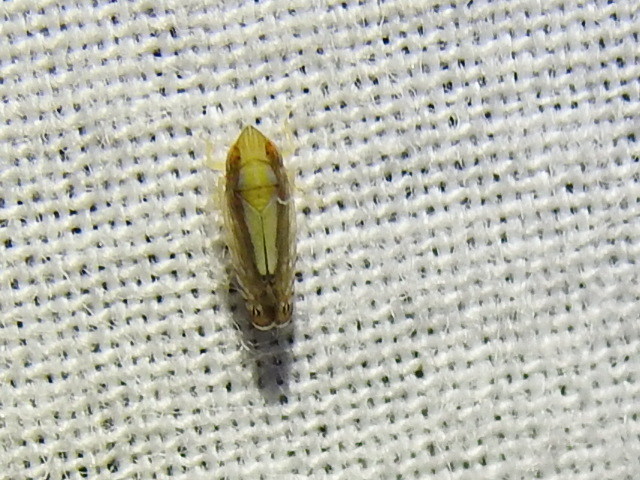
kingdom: Animalia
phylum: Arthropoda
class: Insecta
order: Hemiptera
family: Cicadellidae
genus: Scaphytopius
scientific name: Scaphytopius elegans
